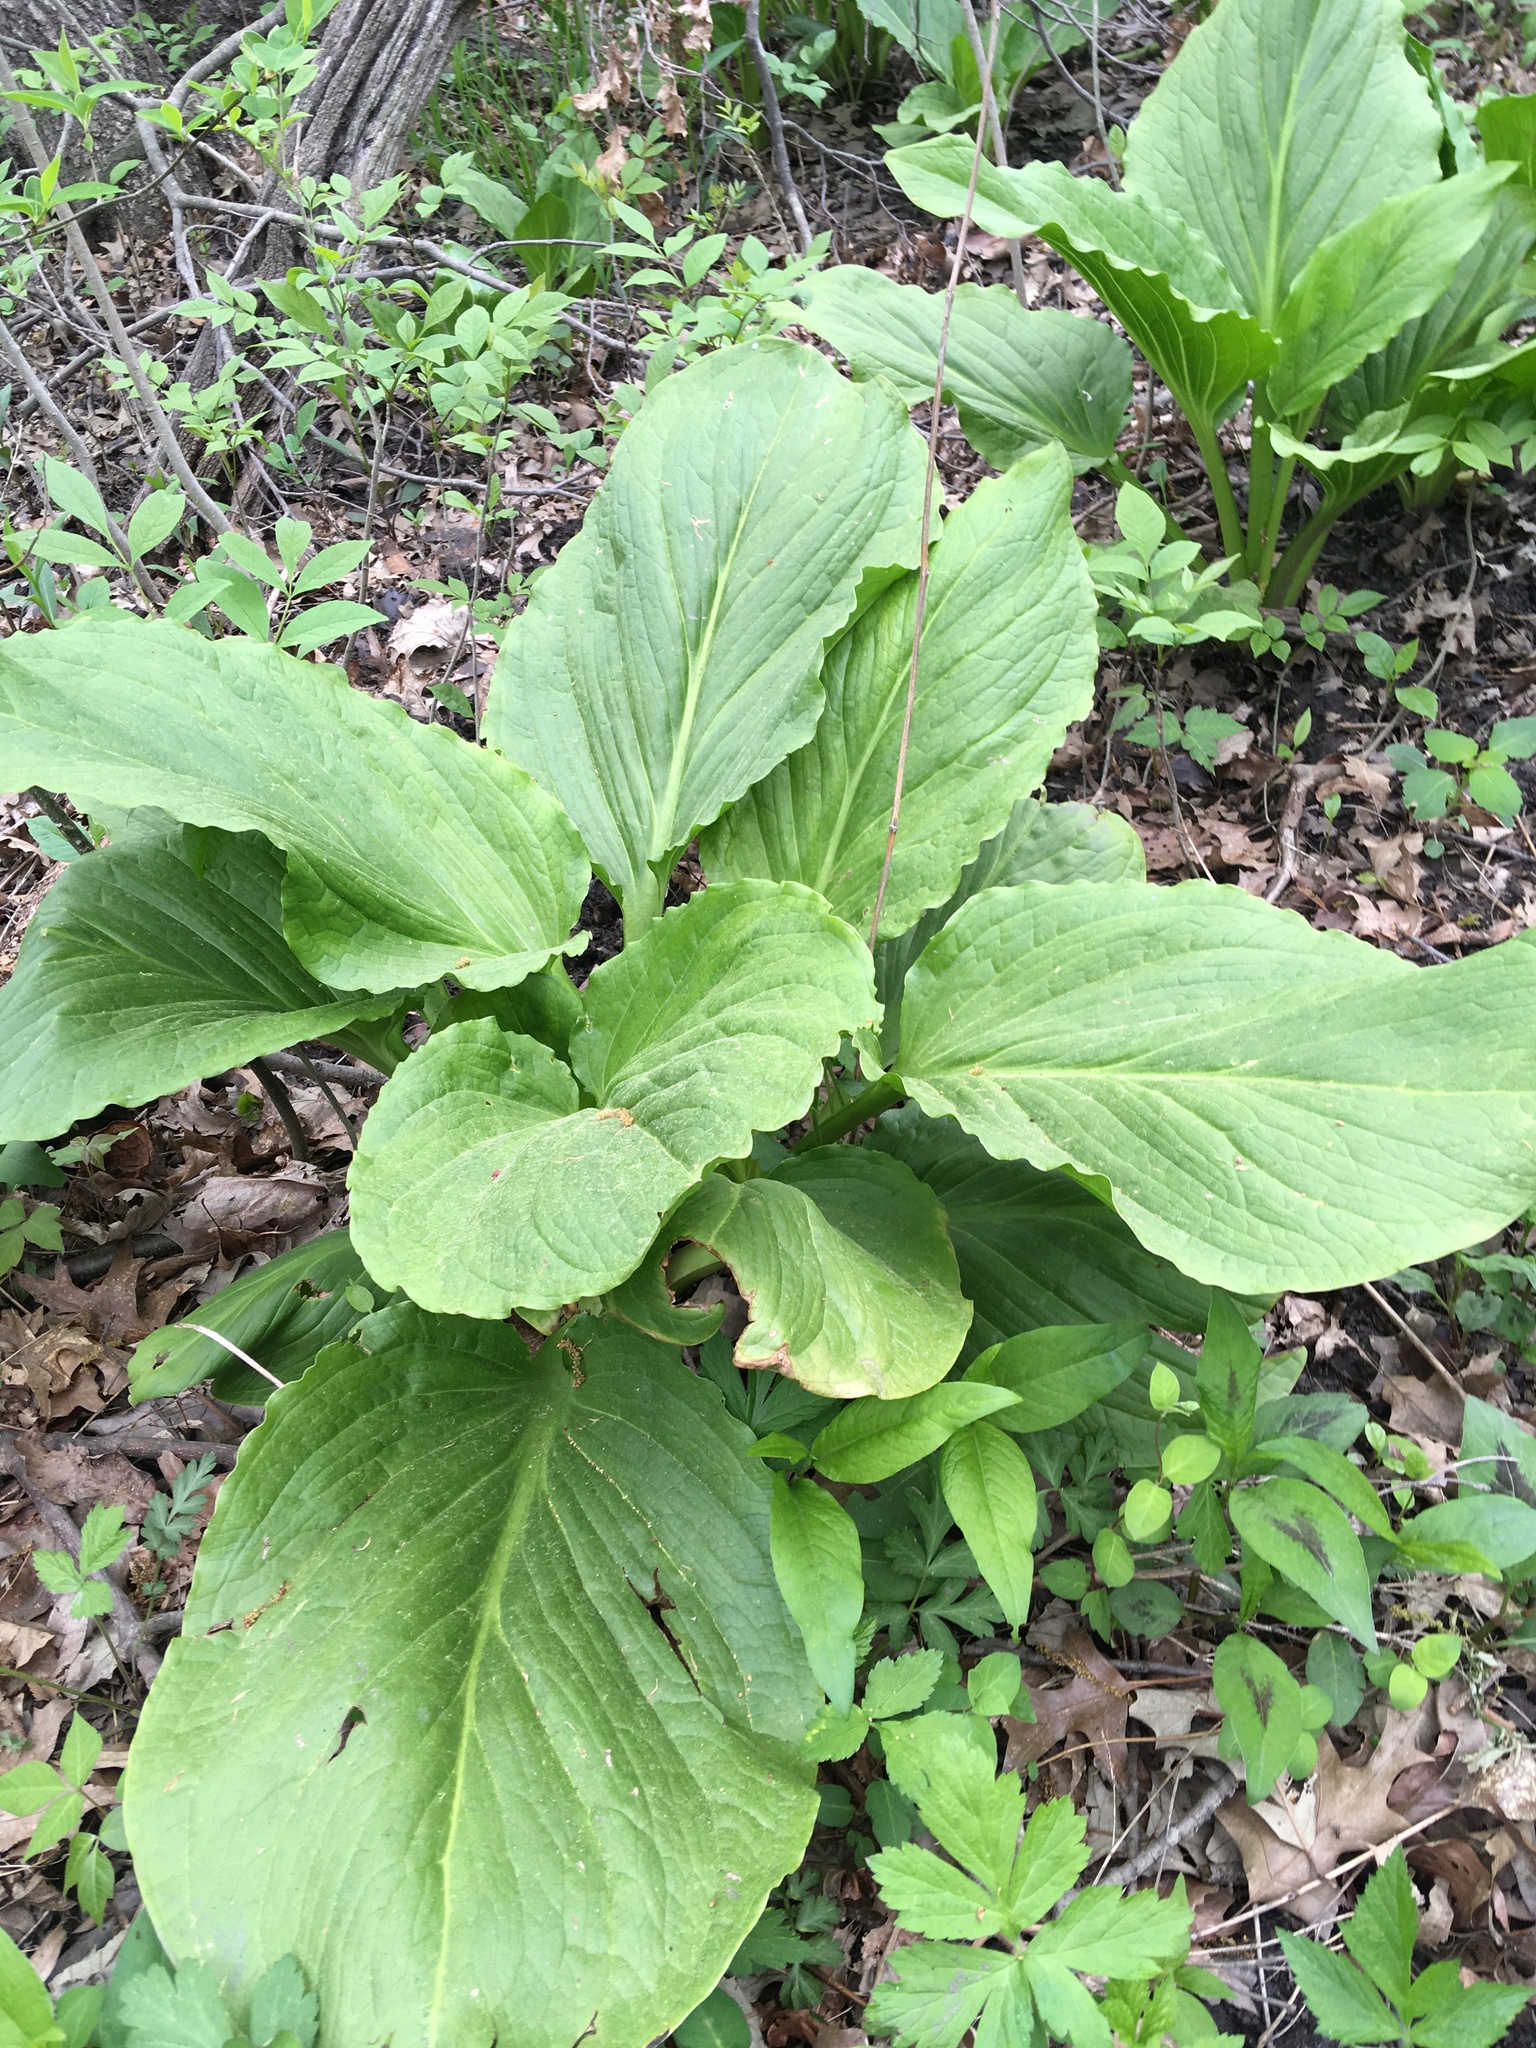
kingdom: Plantae
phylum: Tracheophyta
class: Liliopsida
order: Alismatales
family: Araceae
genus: Symplocarpus
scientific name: Symplocarpus foetidus
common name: Eastern skunk cabbage
